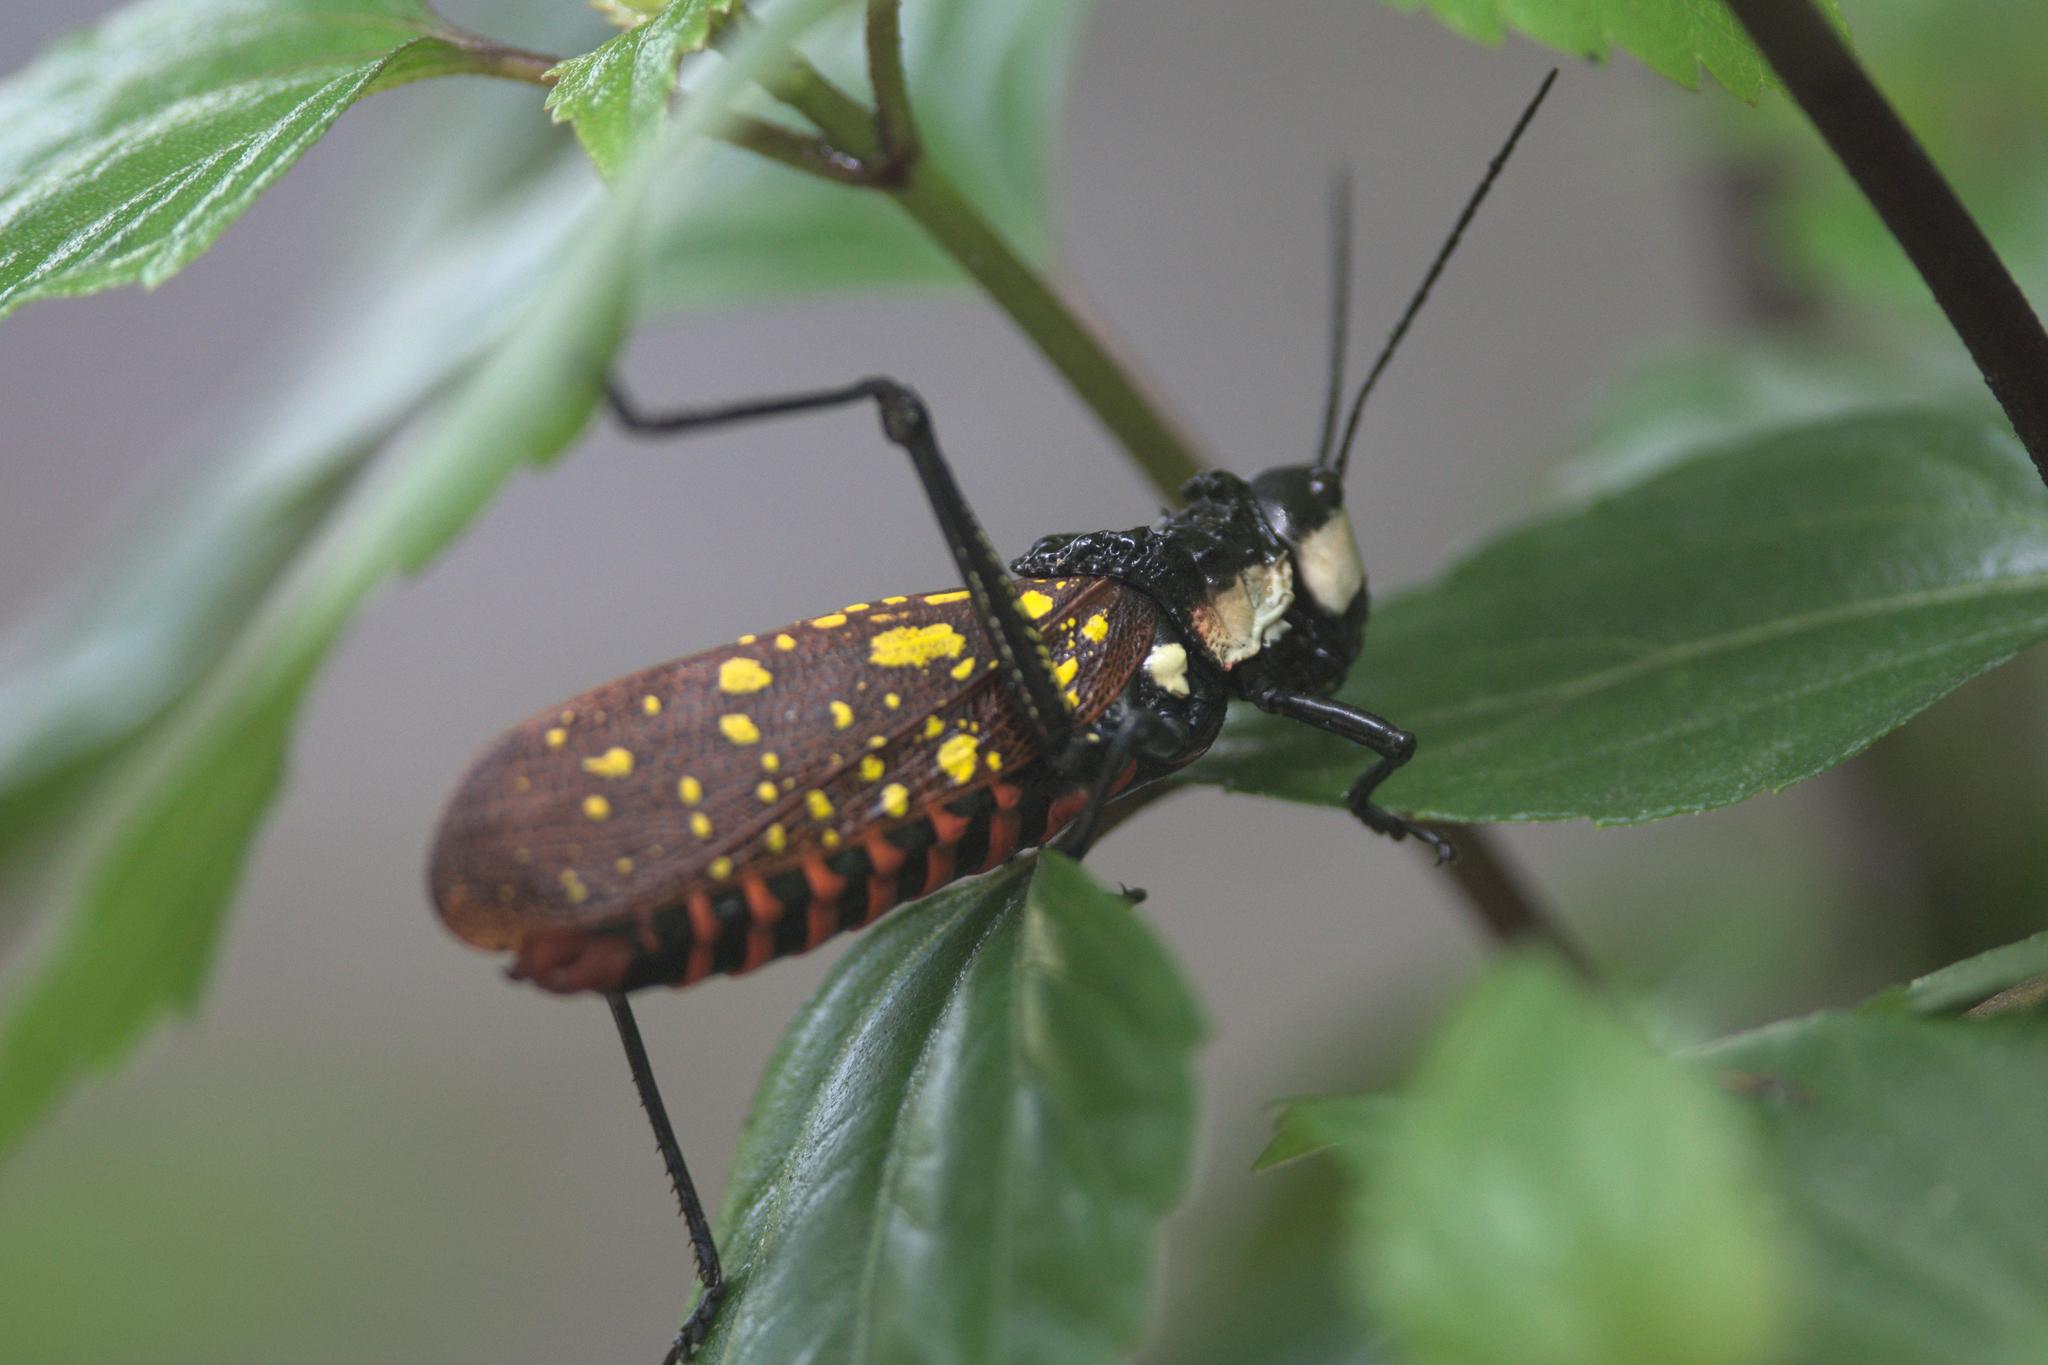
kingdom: Animalia
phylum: Arthropoda
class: Insecta
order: Orthoptera
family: Pyrgomorphidae
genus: Aularches
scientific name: Aularches miliaris
